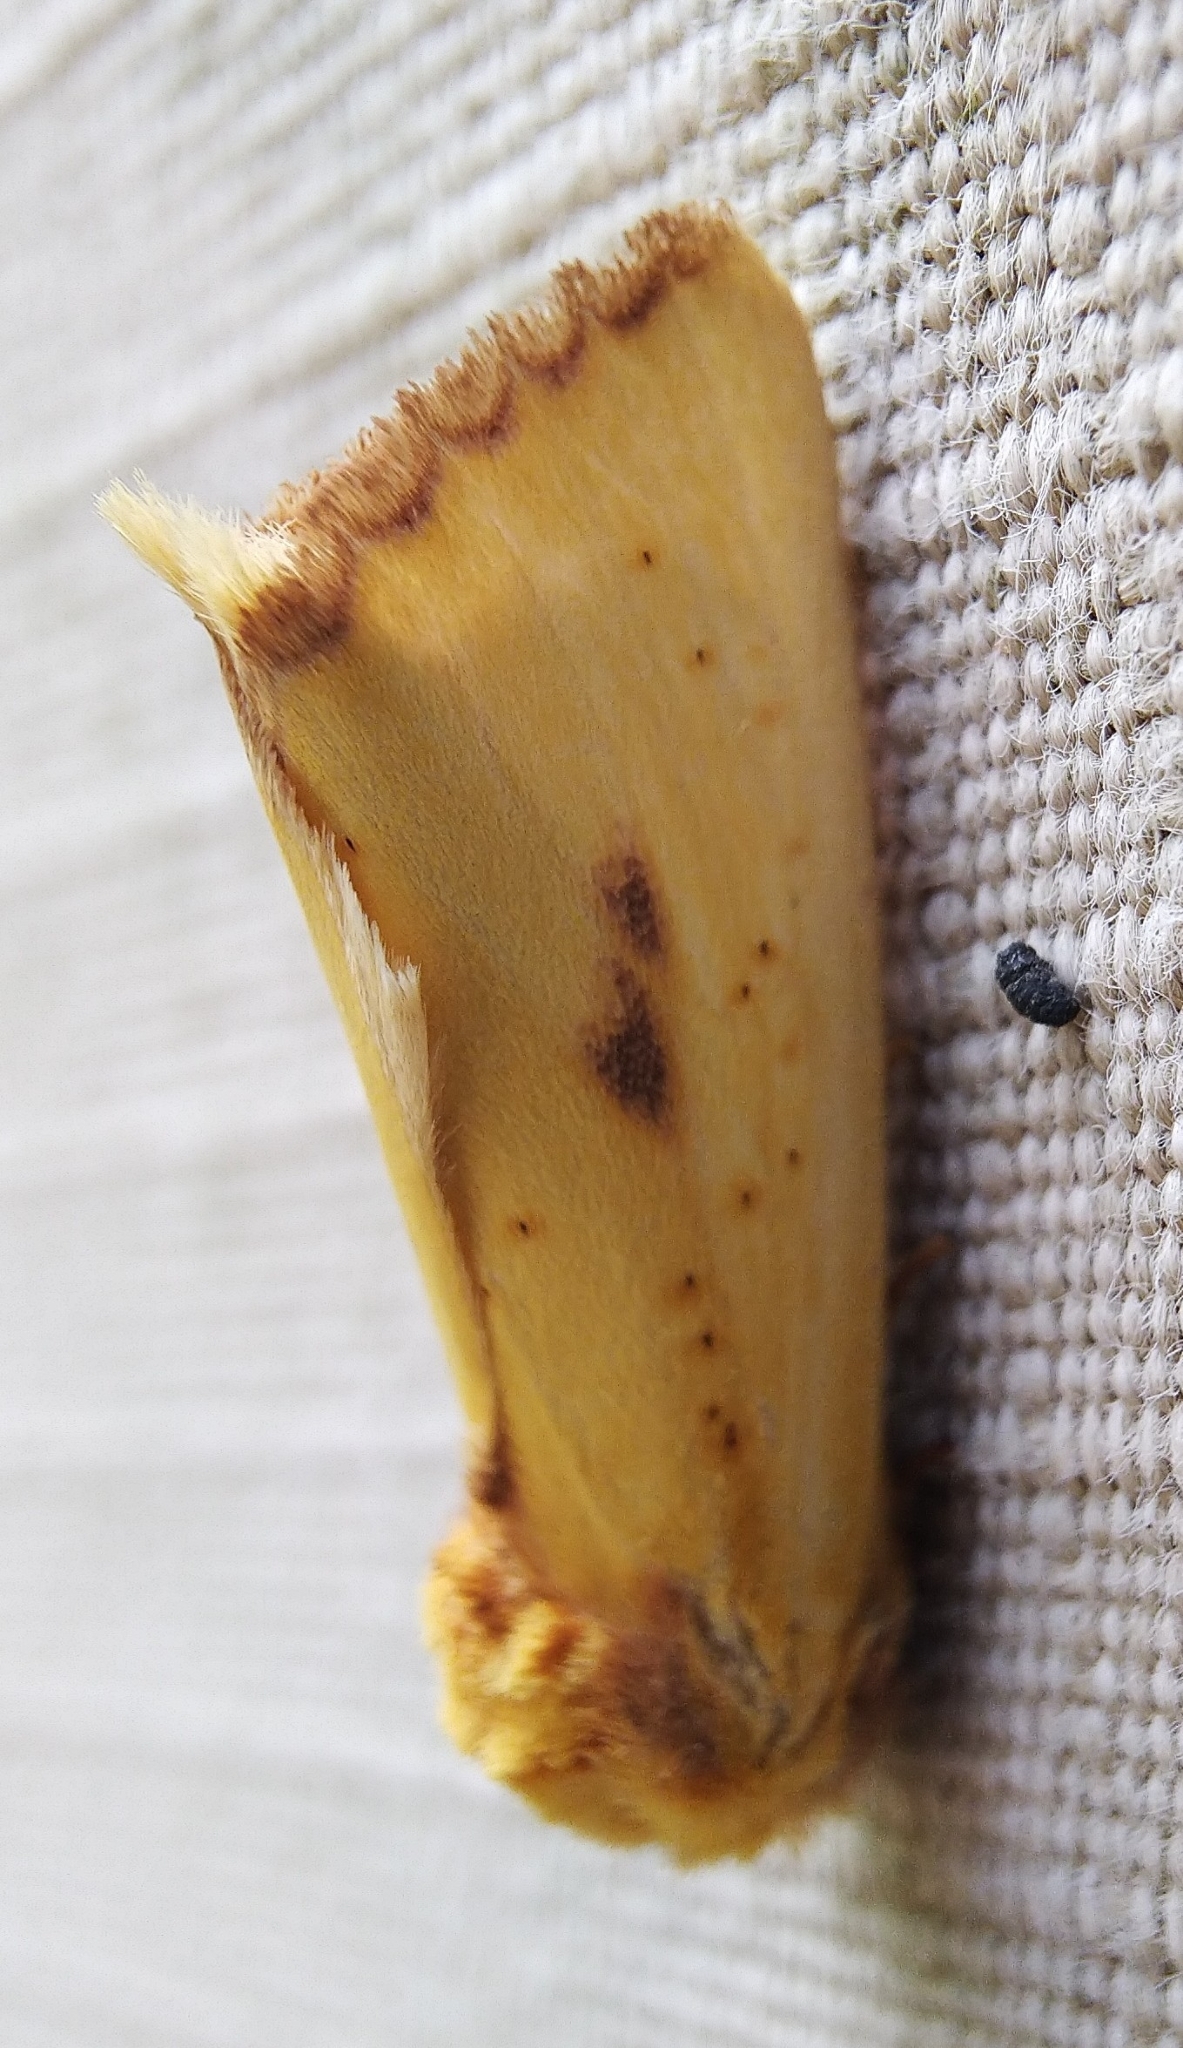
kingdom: Animalia
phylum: Arthropoda
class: Insecta
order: Lepidoptera
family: Notodontidae
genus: Antheua
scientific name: Antheua servula
